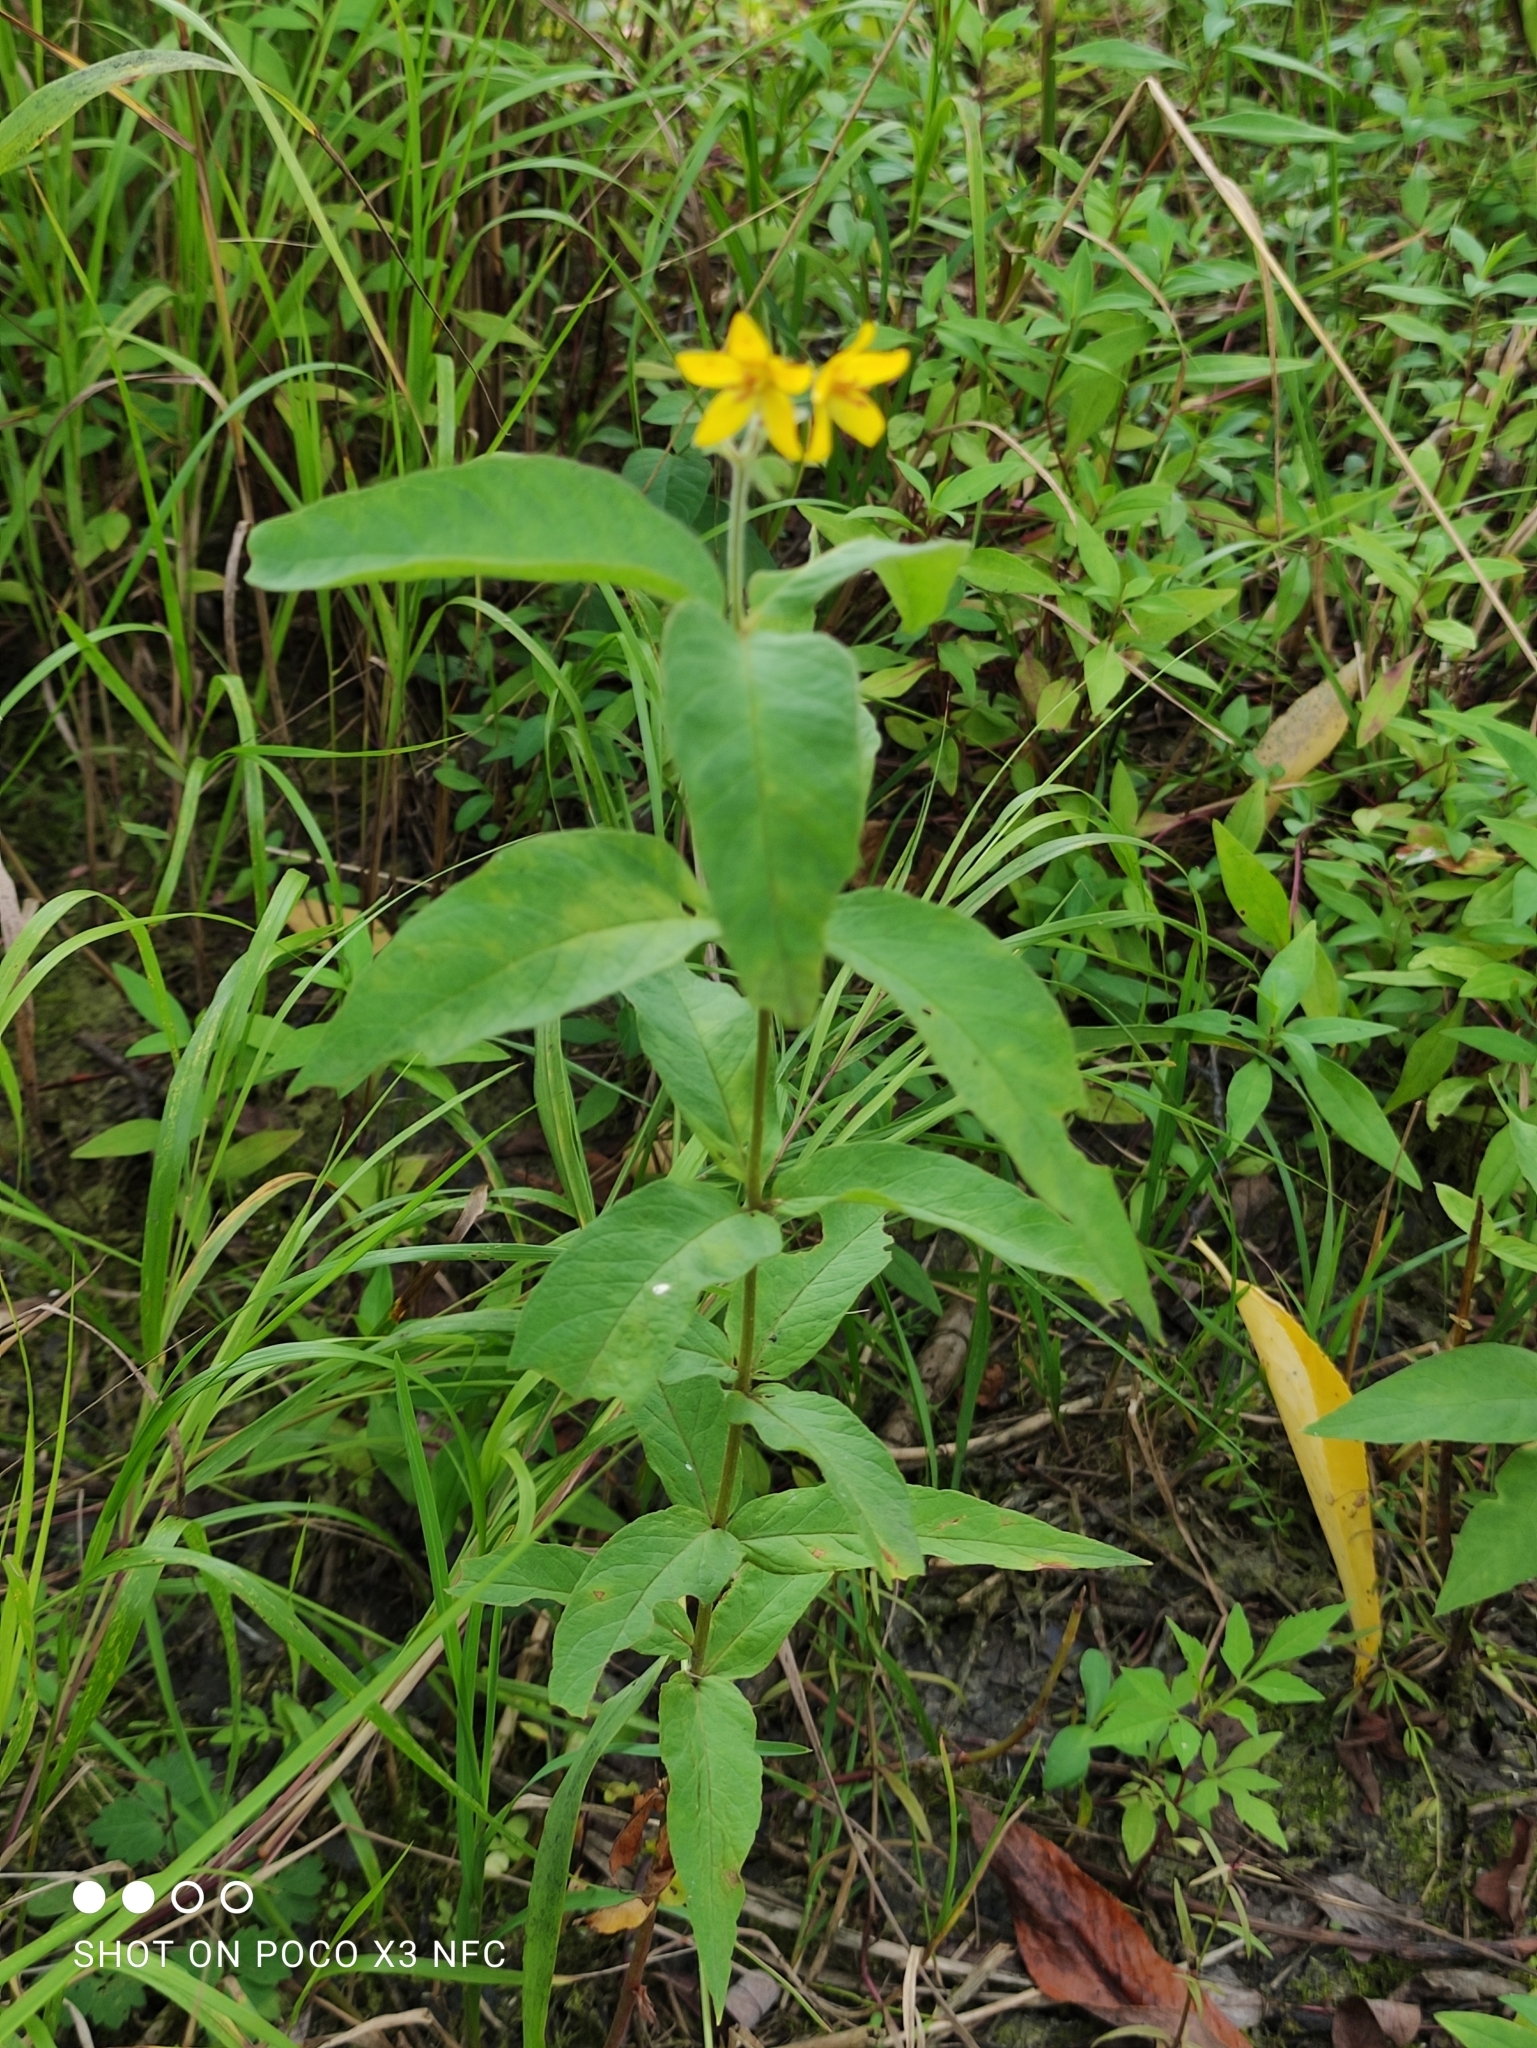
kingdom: Plantae
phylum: Tracheophyta
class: Magnoliopsida
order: Ericales
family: Primulaceae
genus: Lysimachia
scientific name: Lysimachia vulgaris
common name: Yellow loosestrife
